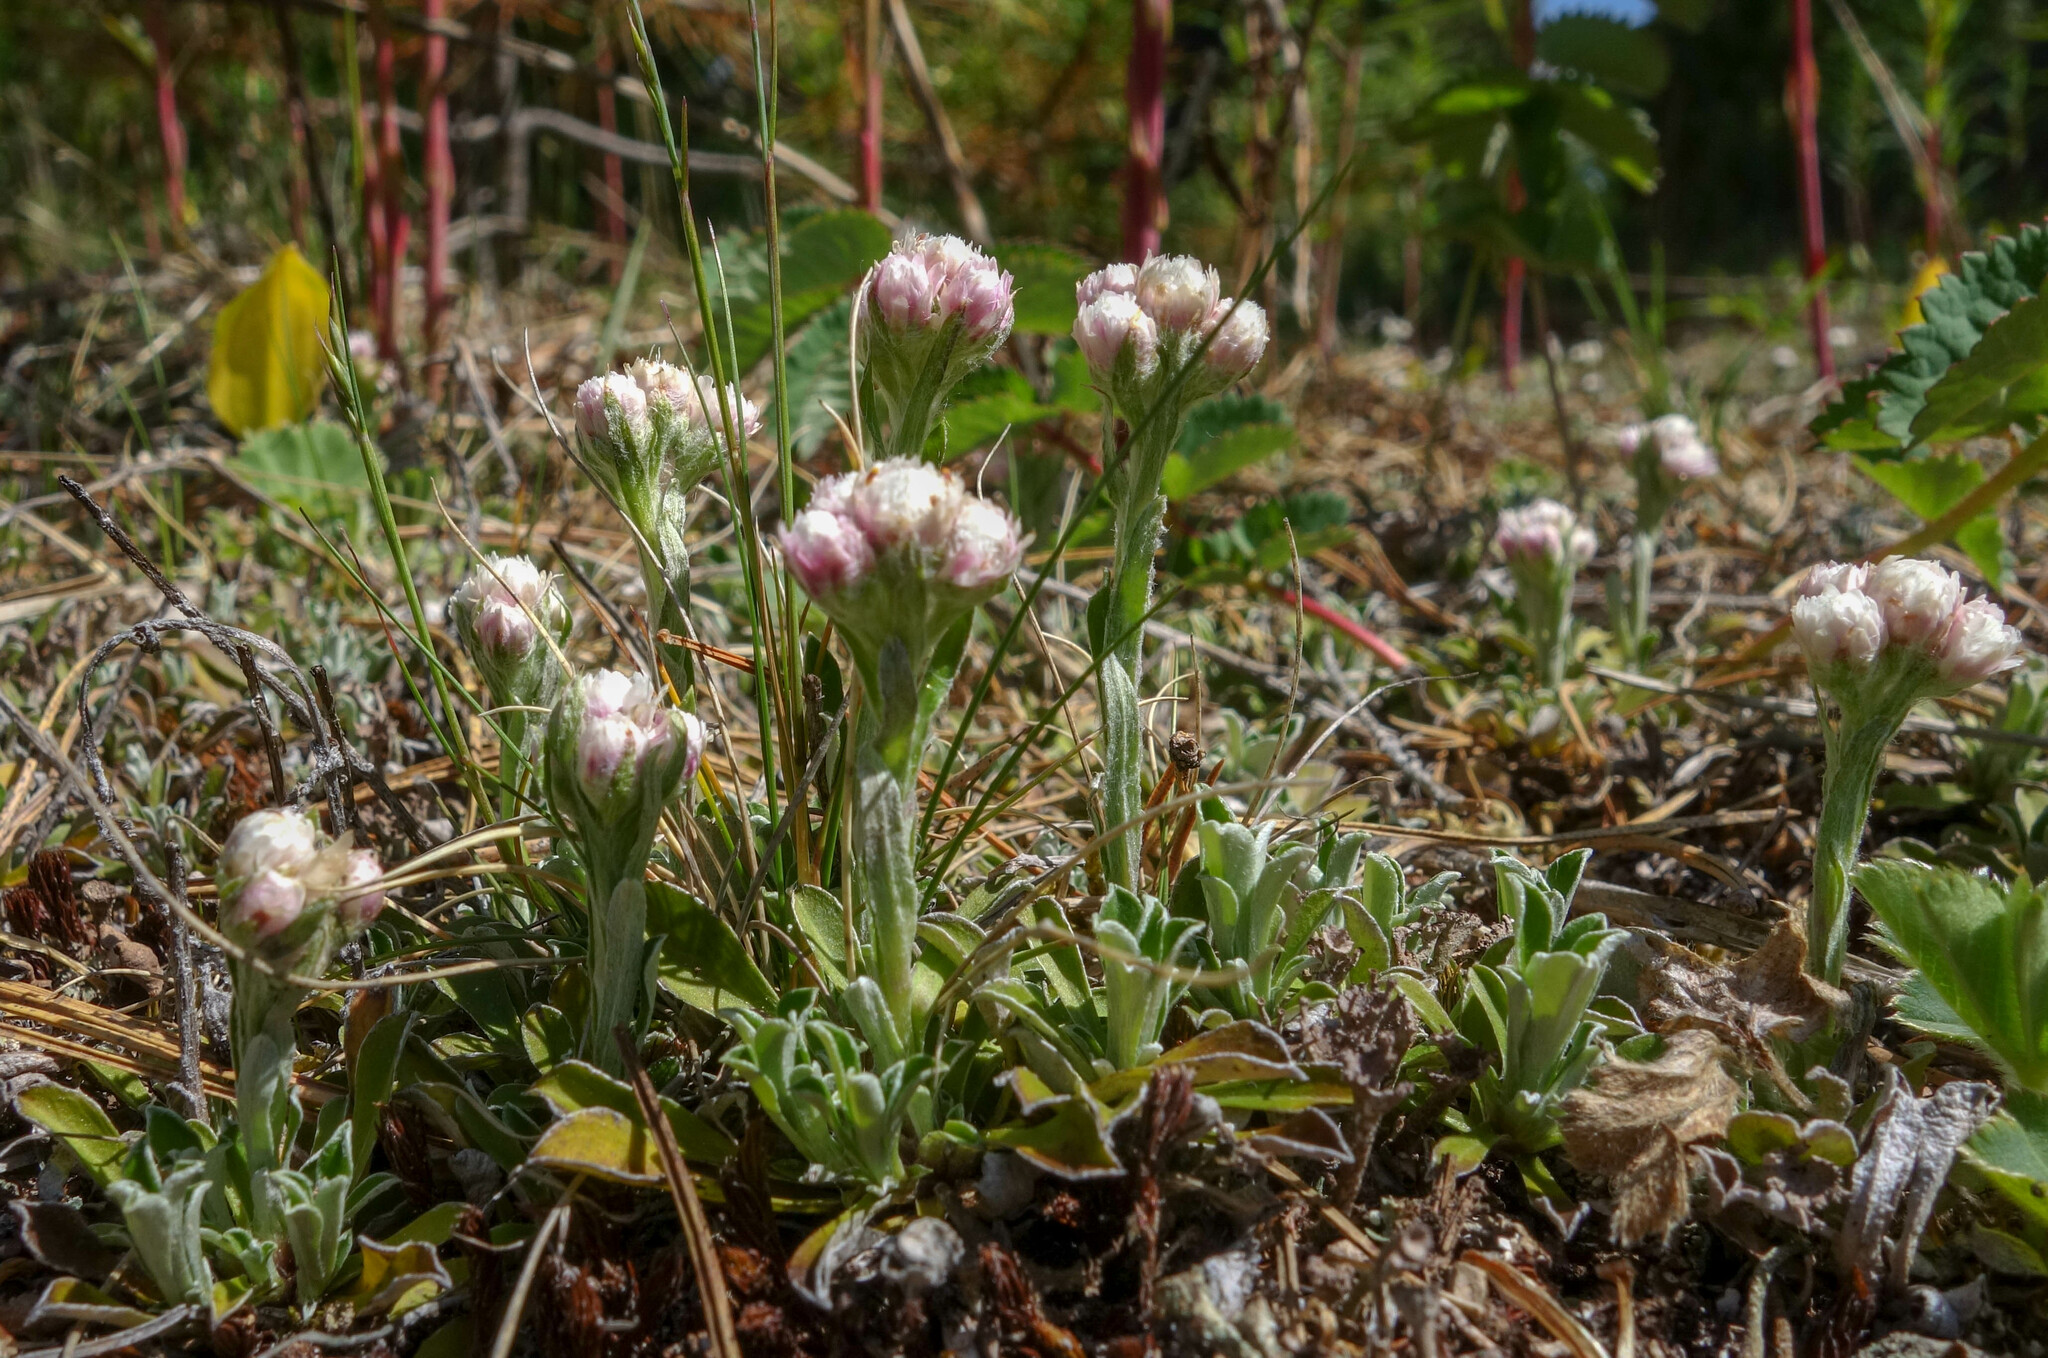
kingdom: Plantae
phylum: Tracheophyta
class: Magnoliopsida
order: Asterales
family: Asteraceae
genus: Antennaria
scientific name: Antennaria dioica
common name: Mountain everlasting
